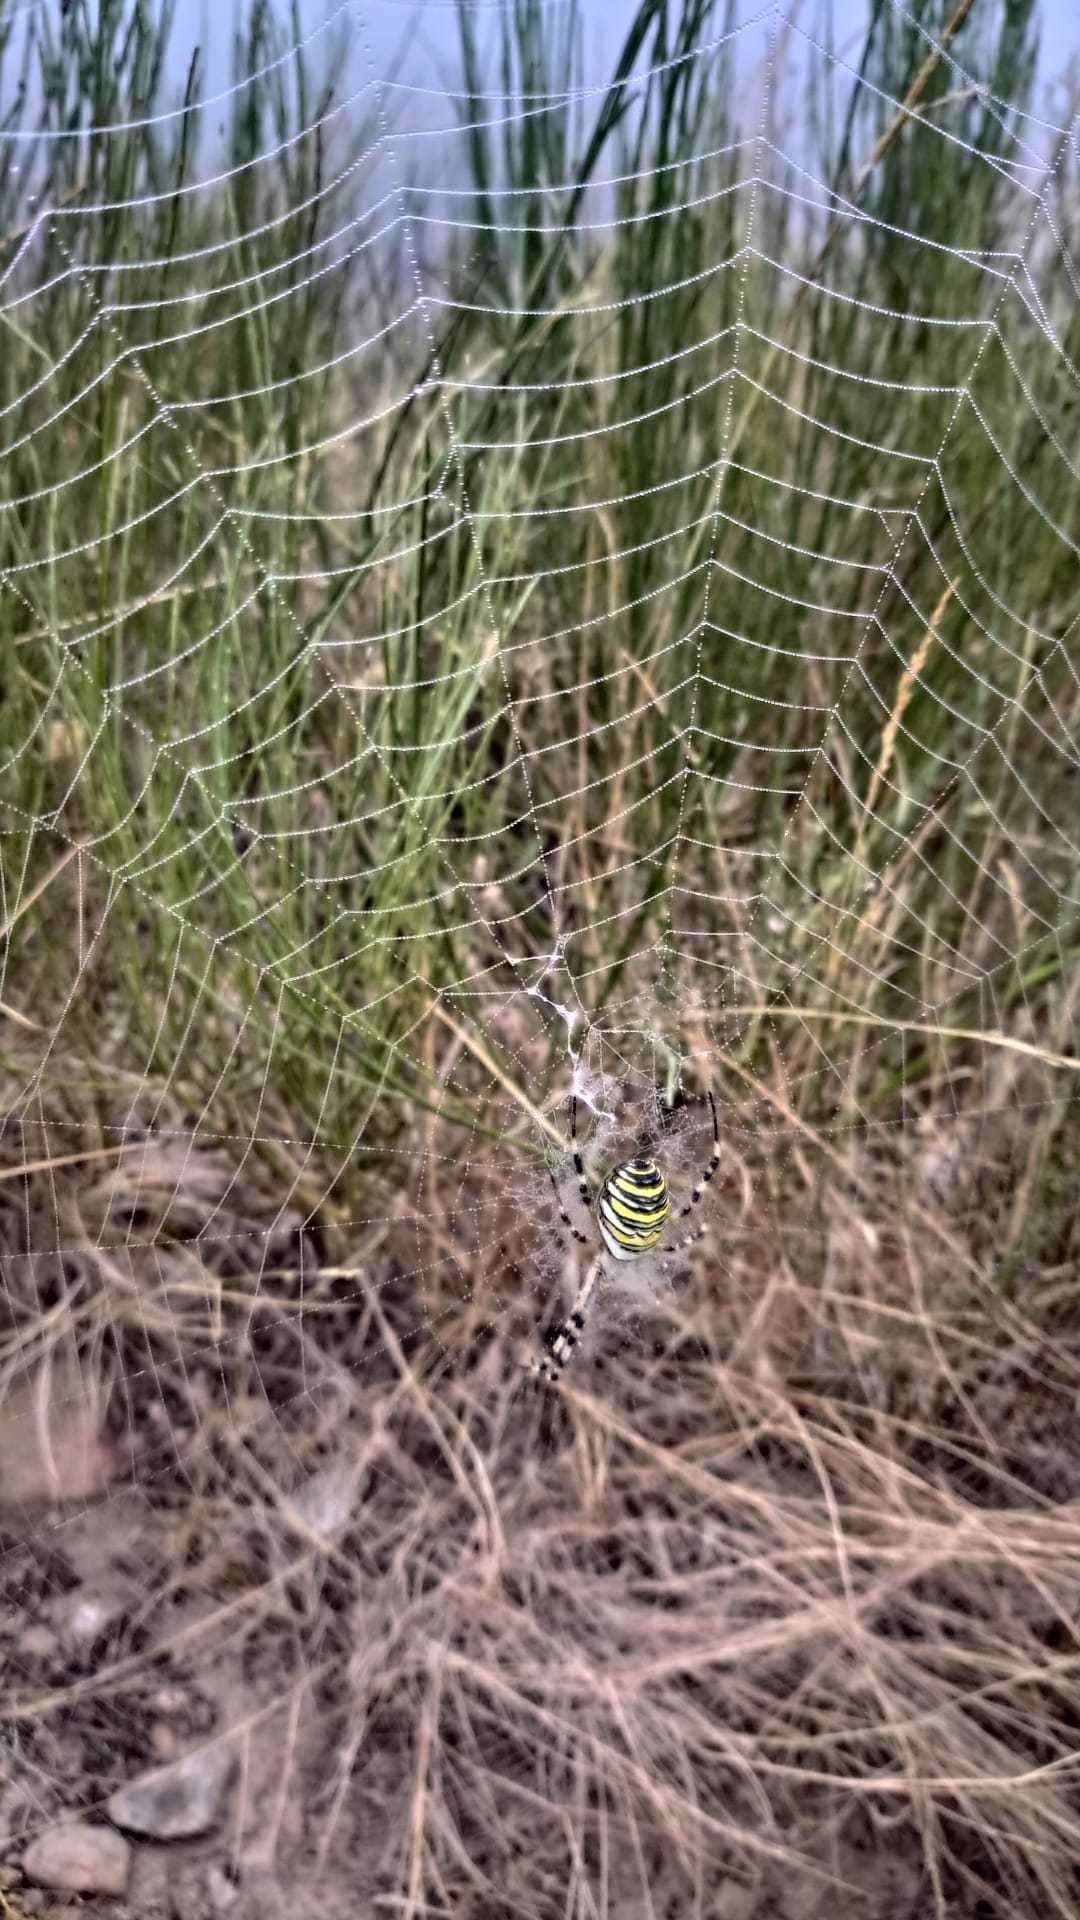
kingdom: Animalia
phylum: Arthropoda
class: Arachnida
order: Araneae
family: Araneidae
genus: Argiope
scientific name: Argiope bruennichi
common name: Wasp spider
